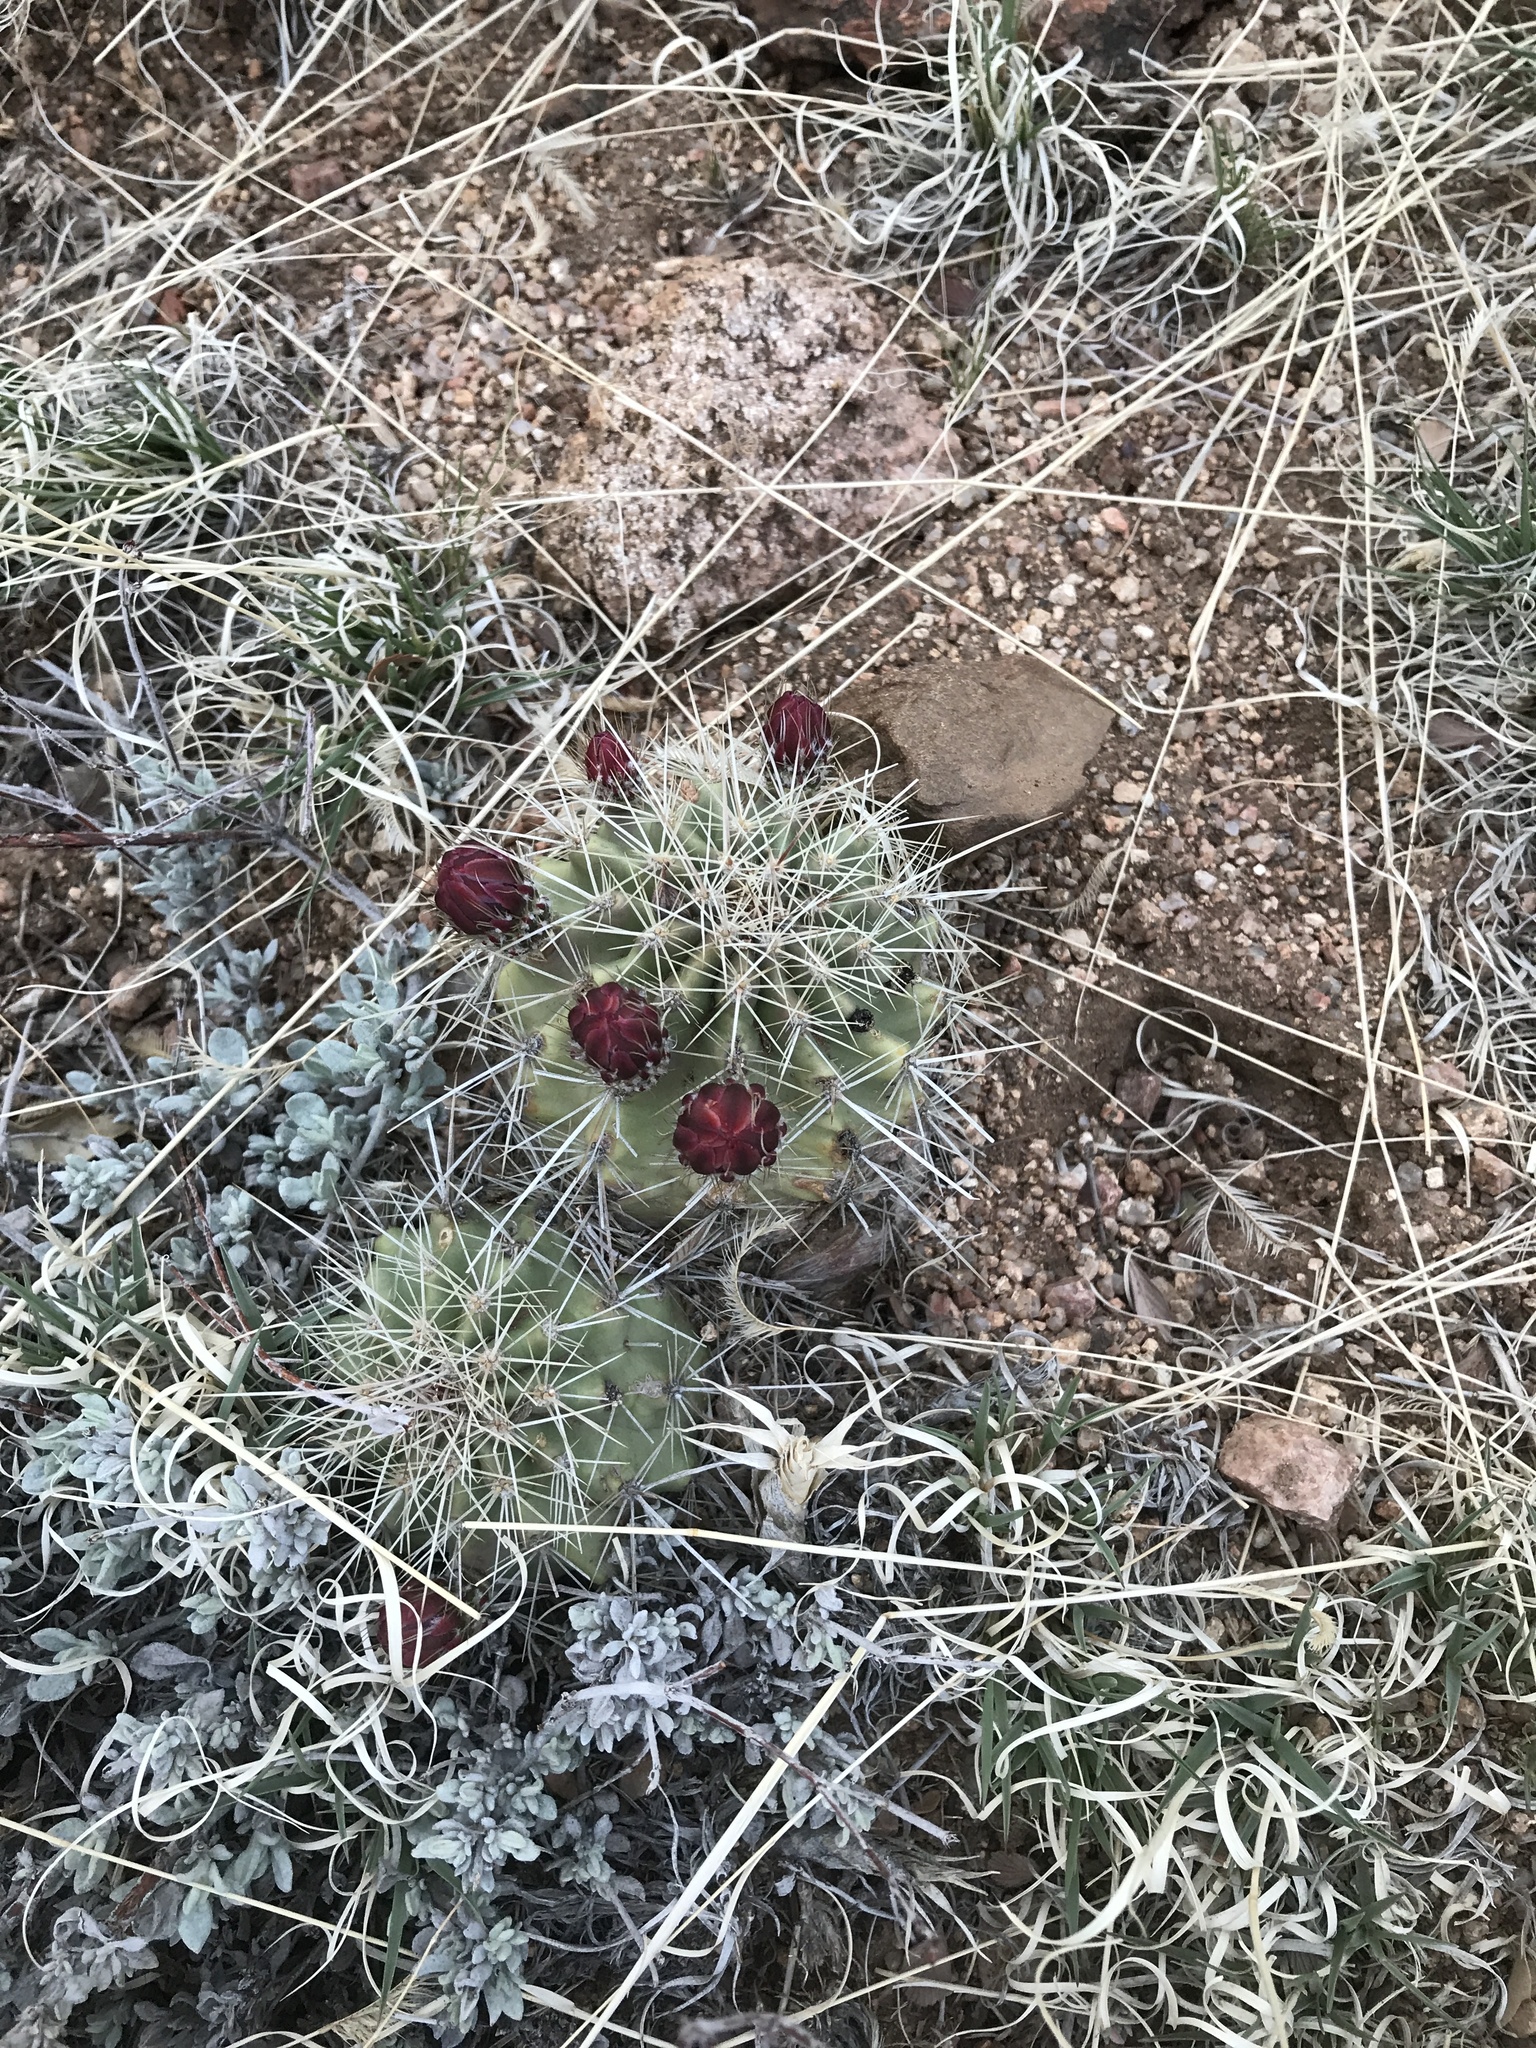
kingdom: Plantae
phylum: Tracheophyta
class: Magnoliopsida
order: Caryophyllales
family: Cactaceae
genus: Echinocereus
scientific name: Echinocereus coccineus
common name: Scarlet hedgehog cactus
